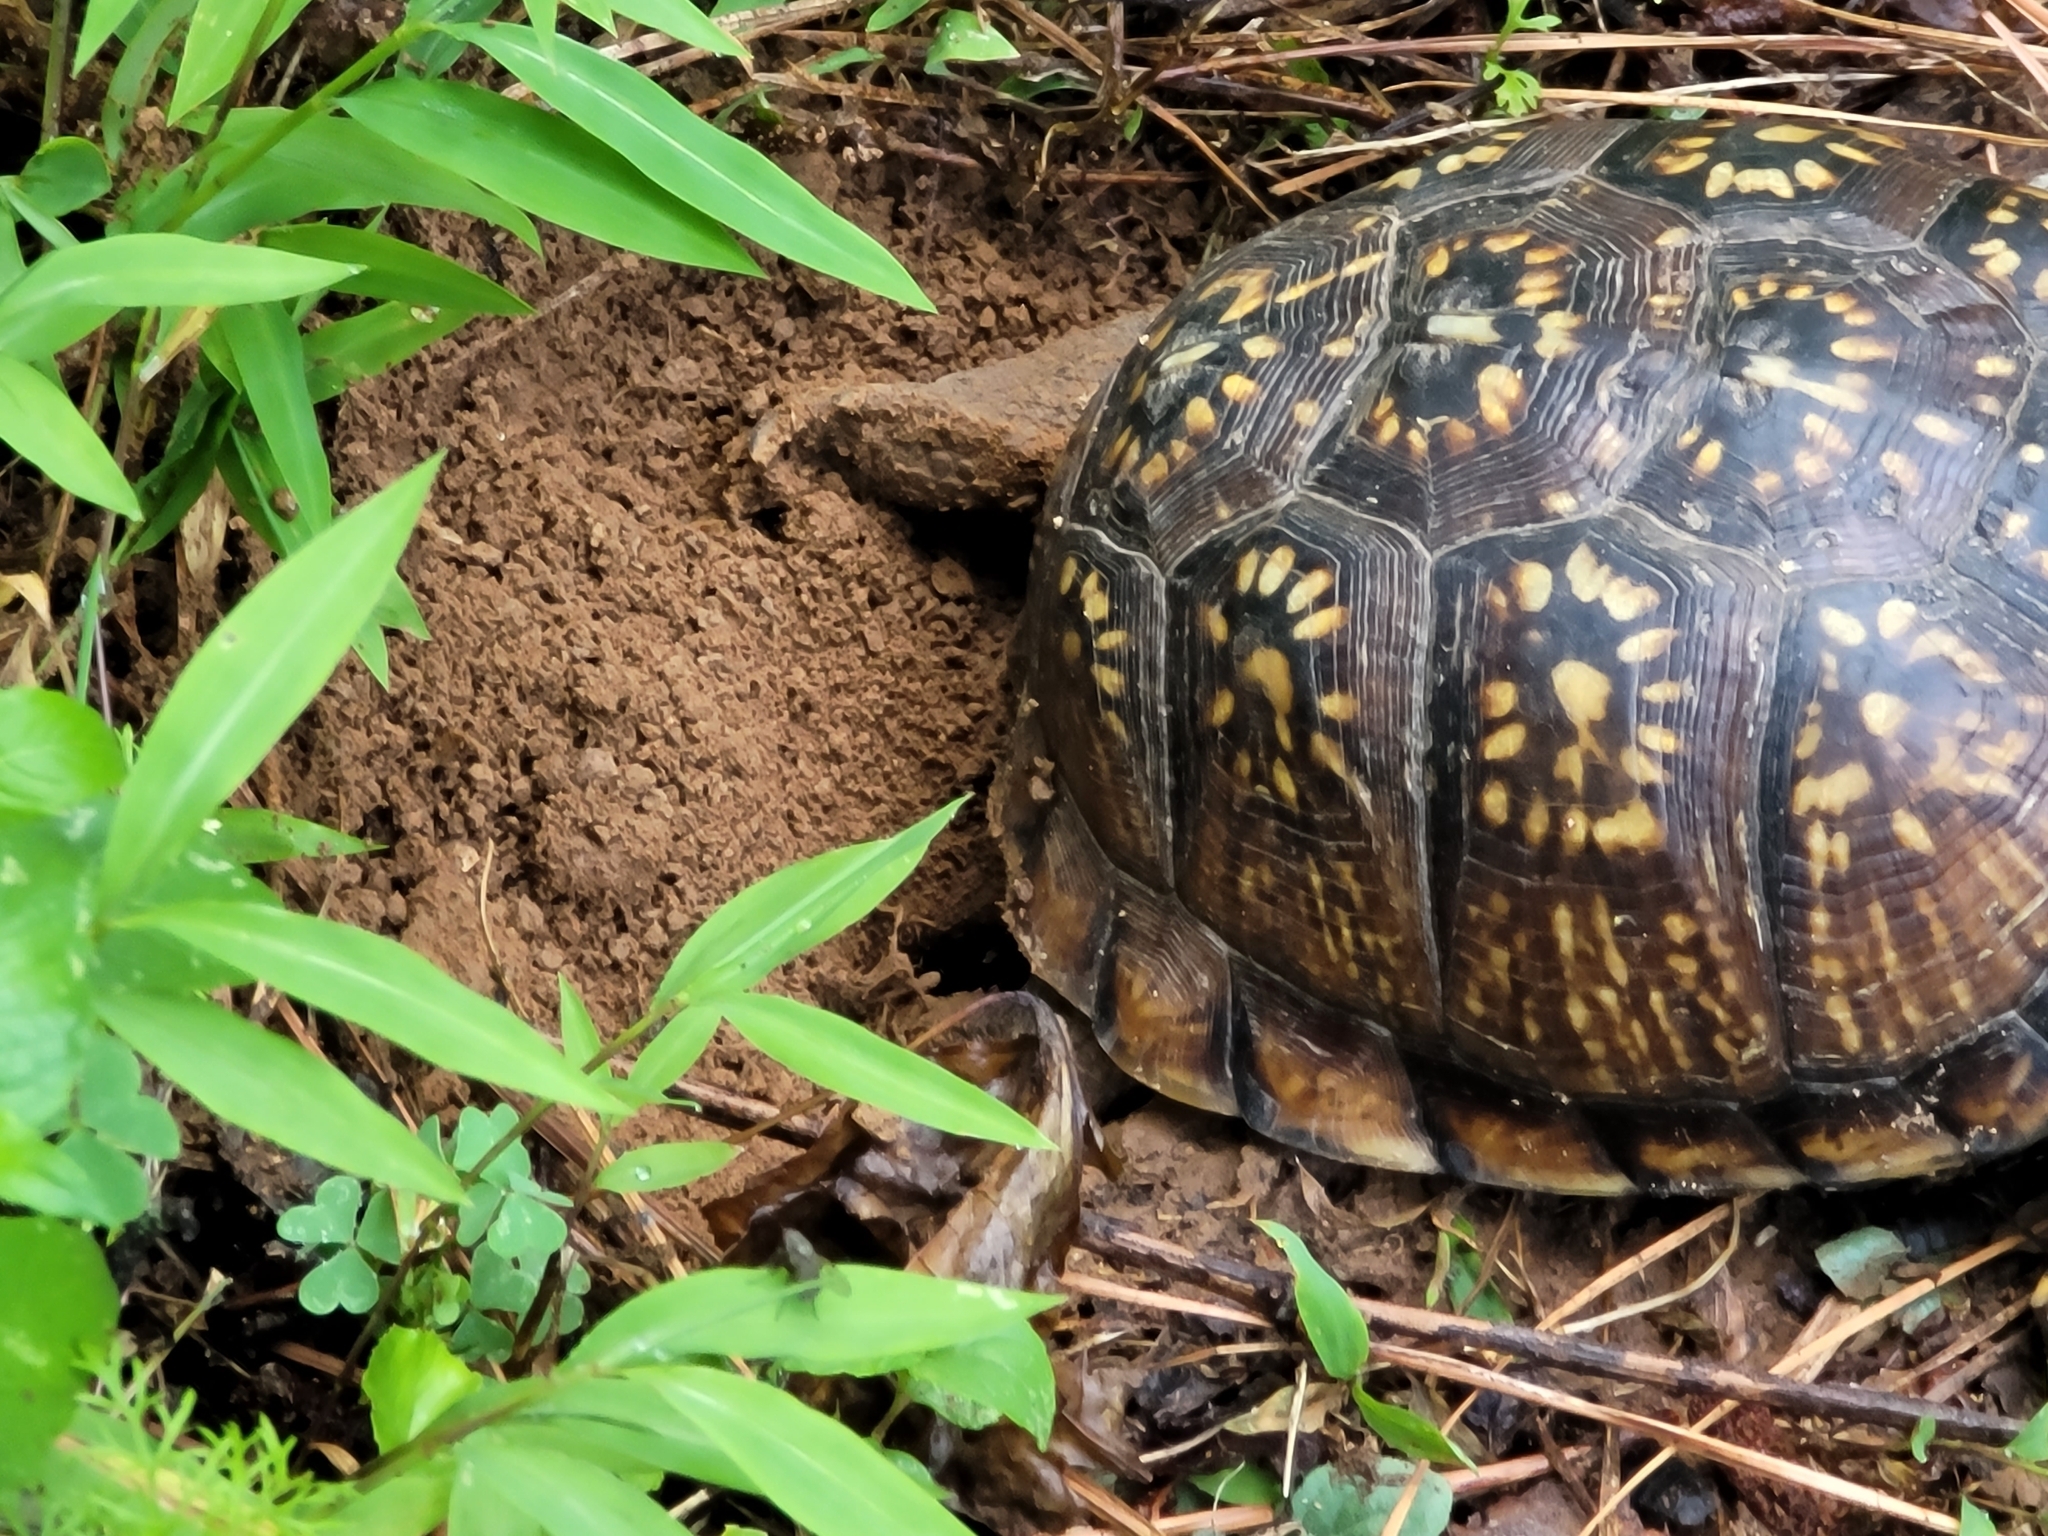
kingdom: Animalia
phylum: Chordata
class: Testudines
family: Emydidae
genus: Terrapene
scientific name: Terrapene carolina
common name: Common box turtle
